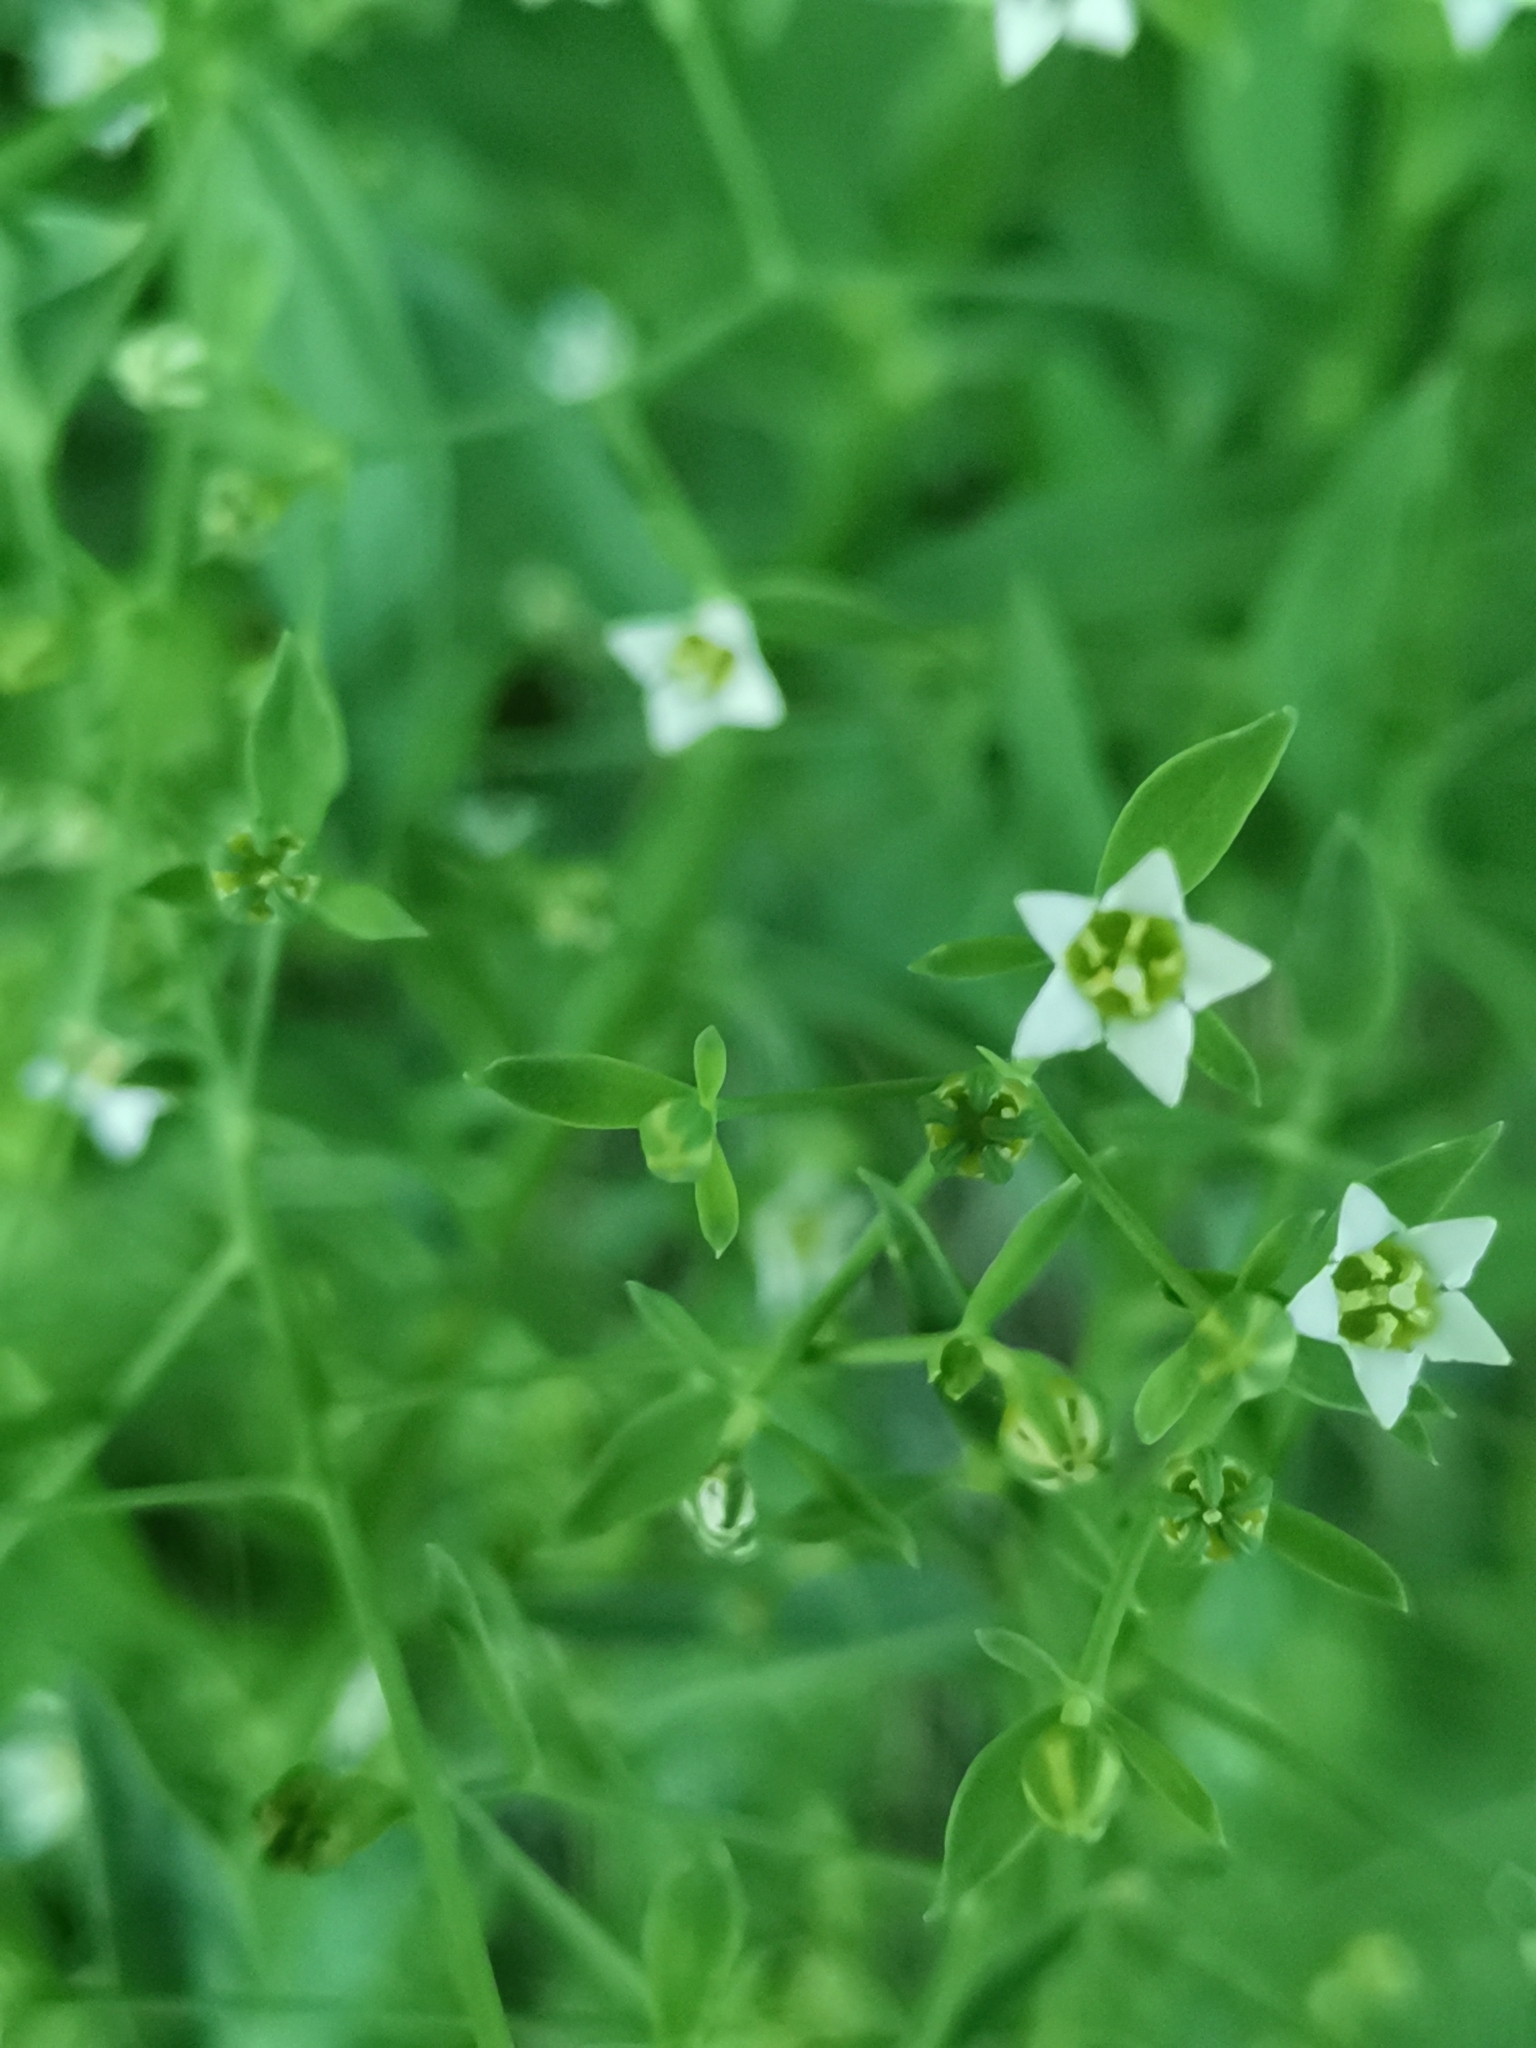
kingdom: Plantae
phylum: Tracheophyta
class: Magnoliopsida
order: Santalales
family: Thesiaceae
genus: Thesium
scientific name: Thesium bavarum
